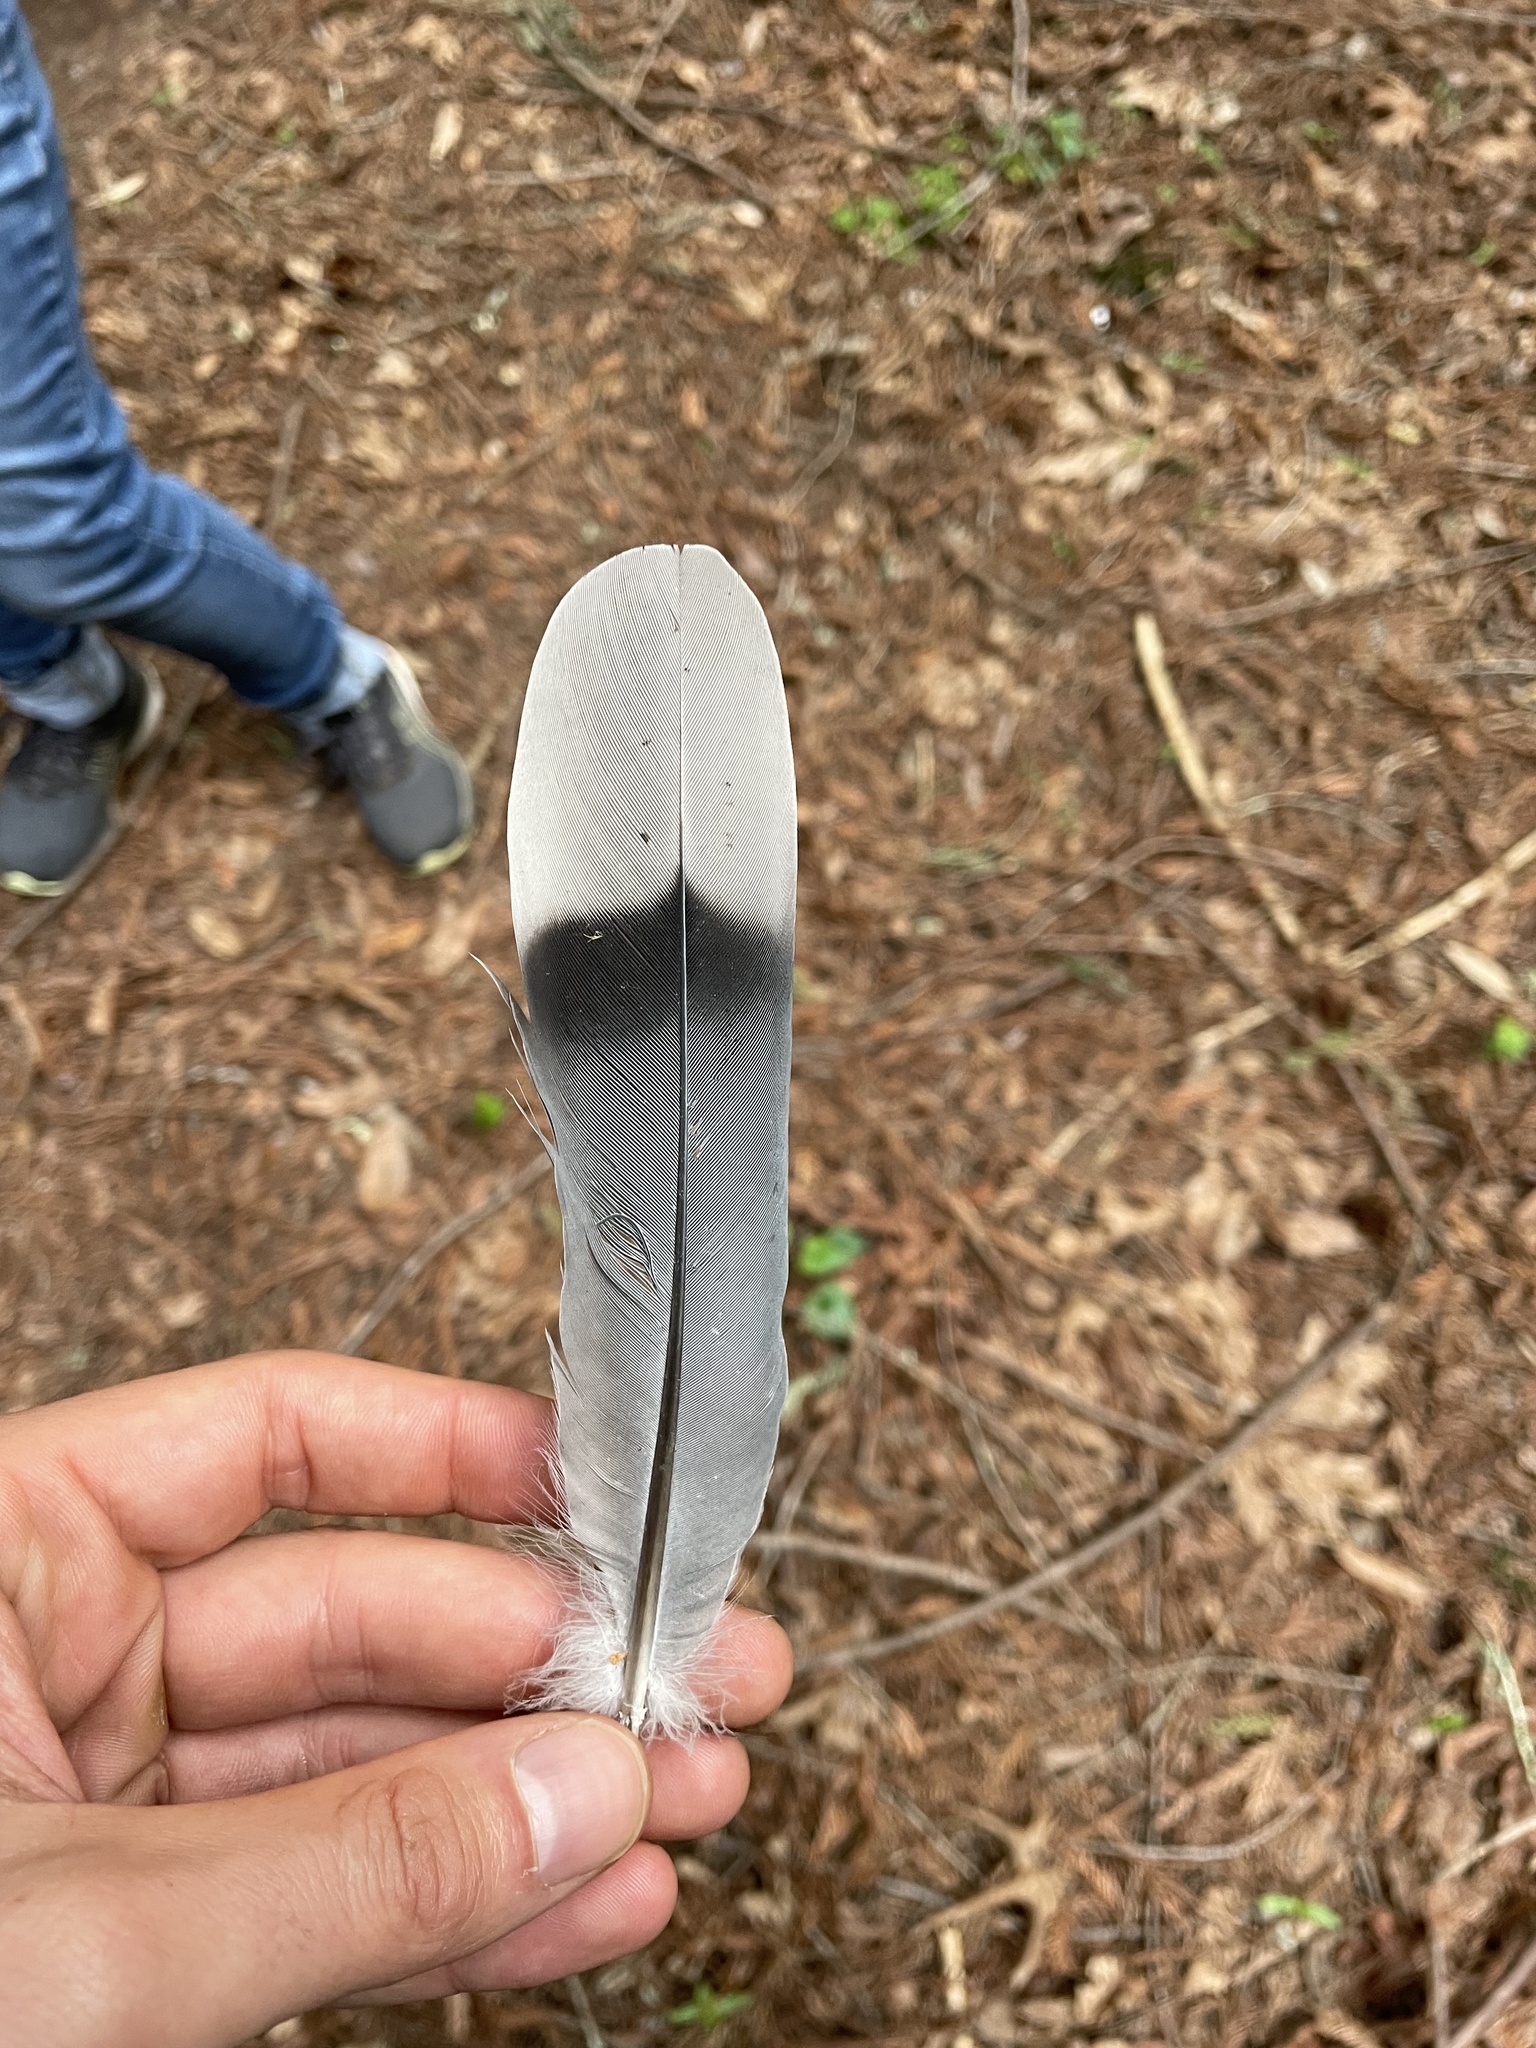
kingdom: Animalia
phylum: Chordata
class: Aves
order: Columbiformes
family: Columbidae
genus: Patagioenas
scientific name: Patagioenas fasciata
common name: Band-tailed pigeon
